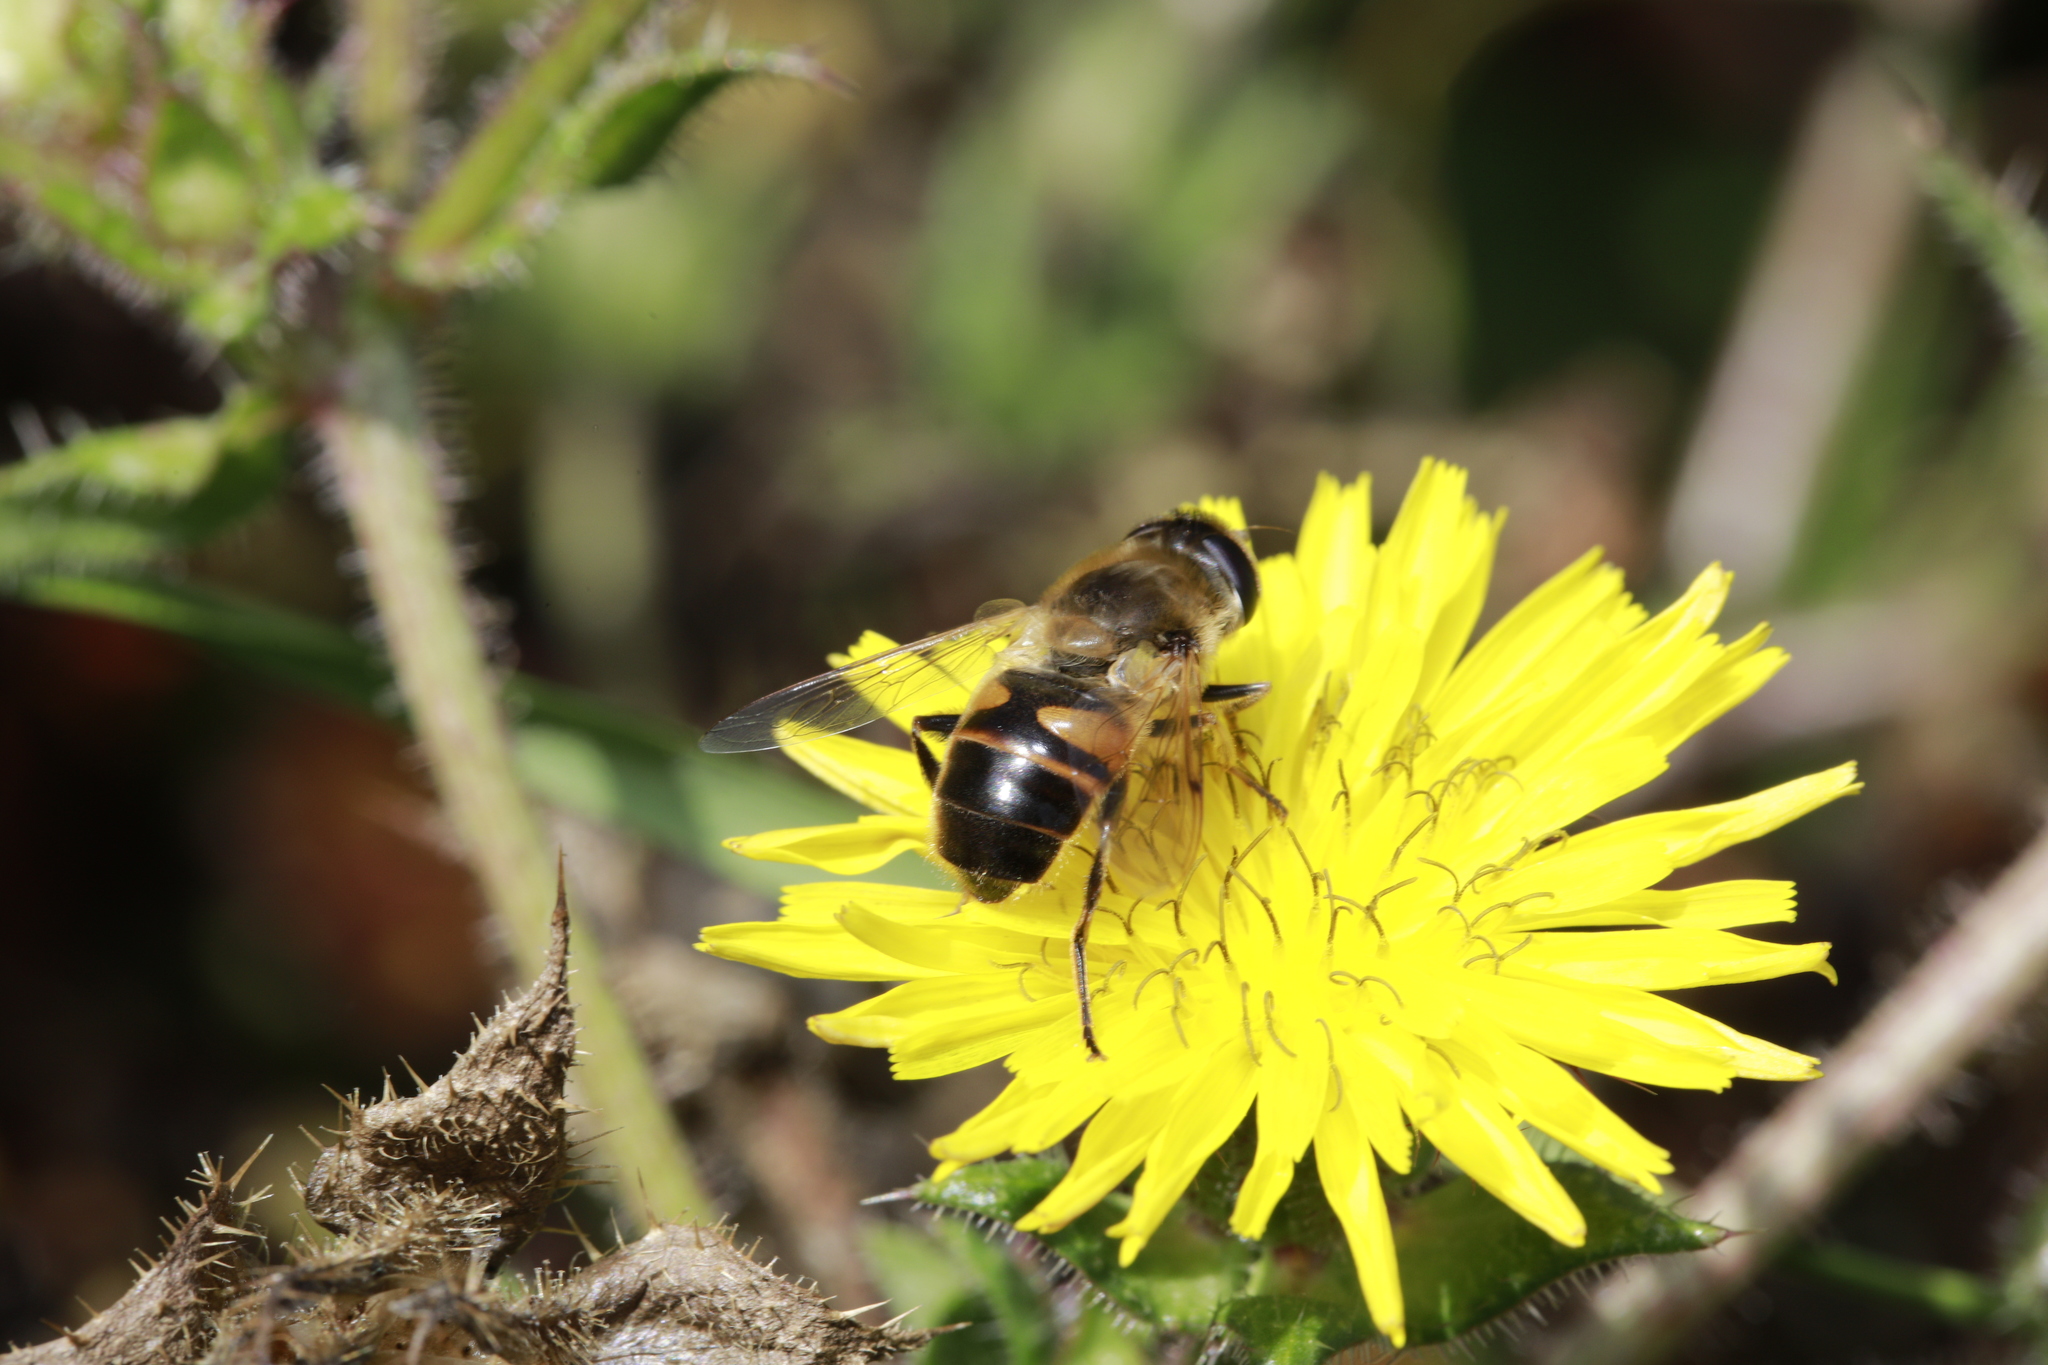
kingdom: Animalia
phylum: Arthropoda
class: Insecta
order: Diptera
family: Syrphidae
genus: Eristalis
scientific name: Eristalis tenax
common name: Drone fly
